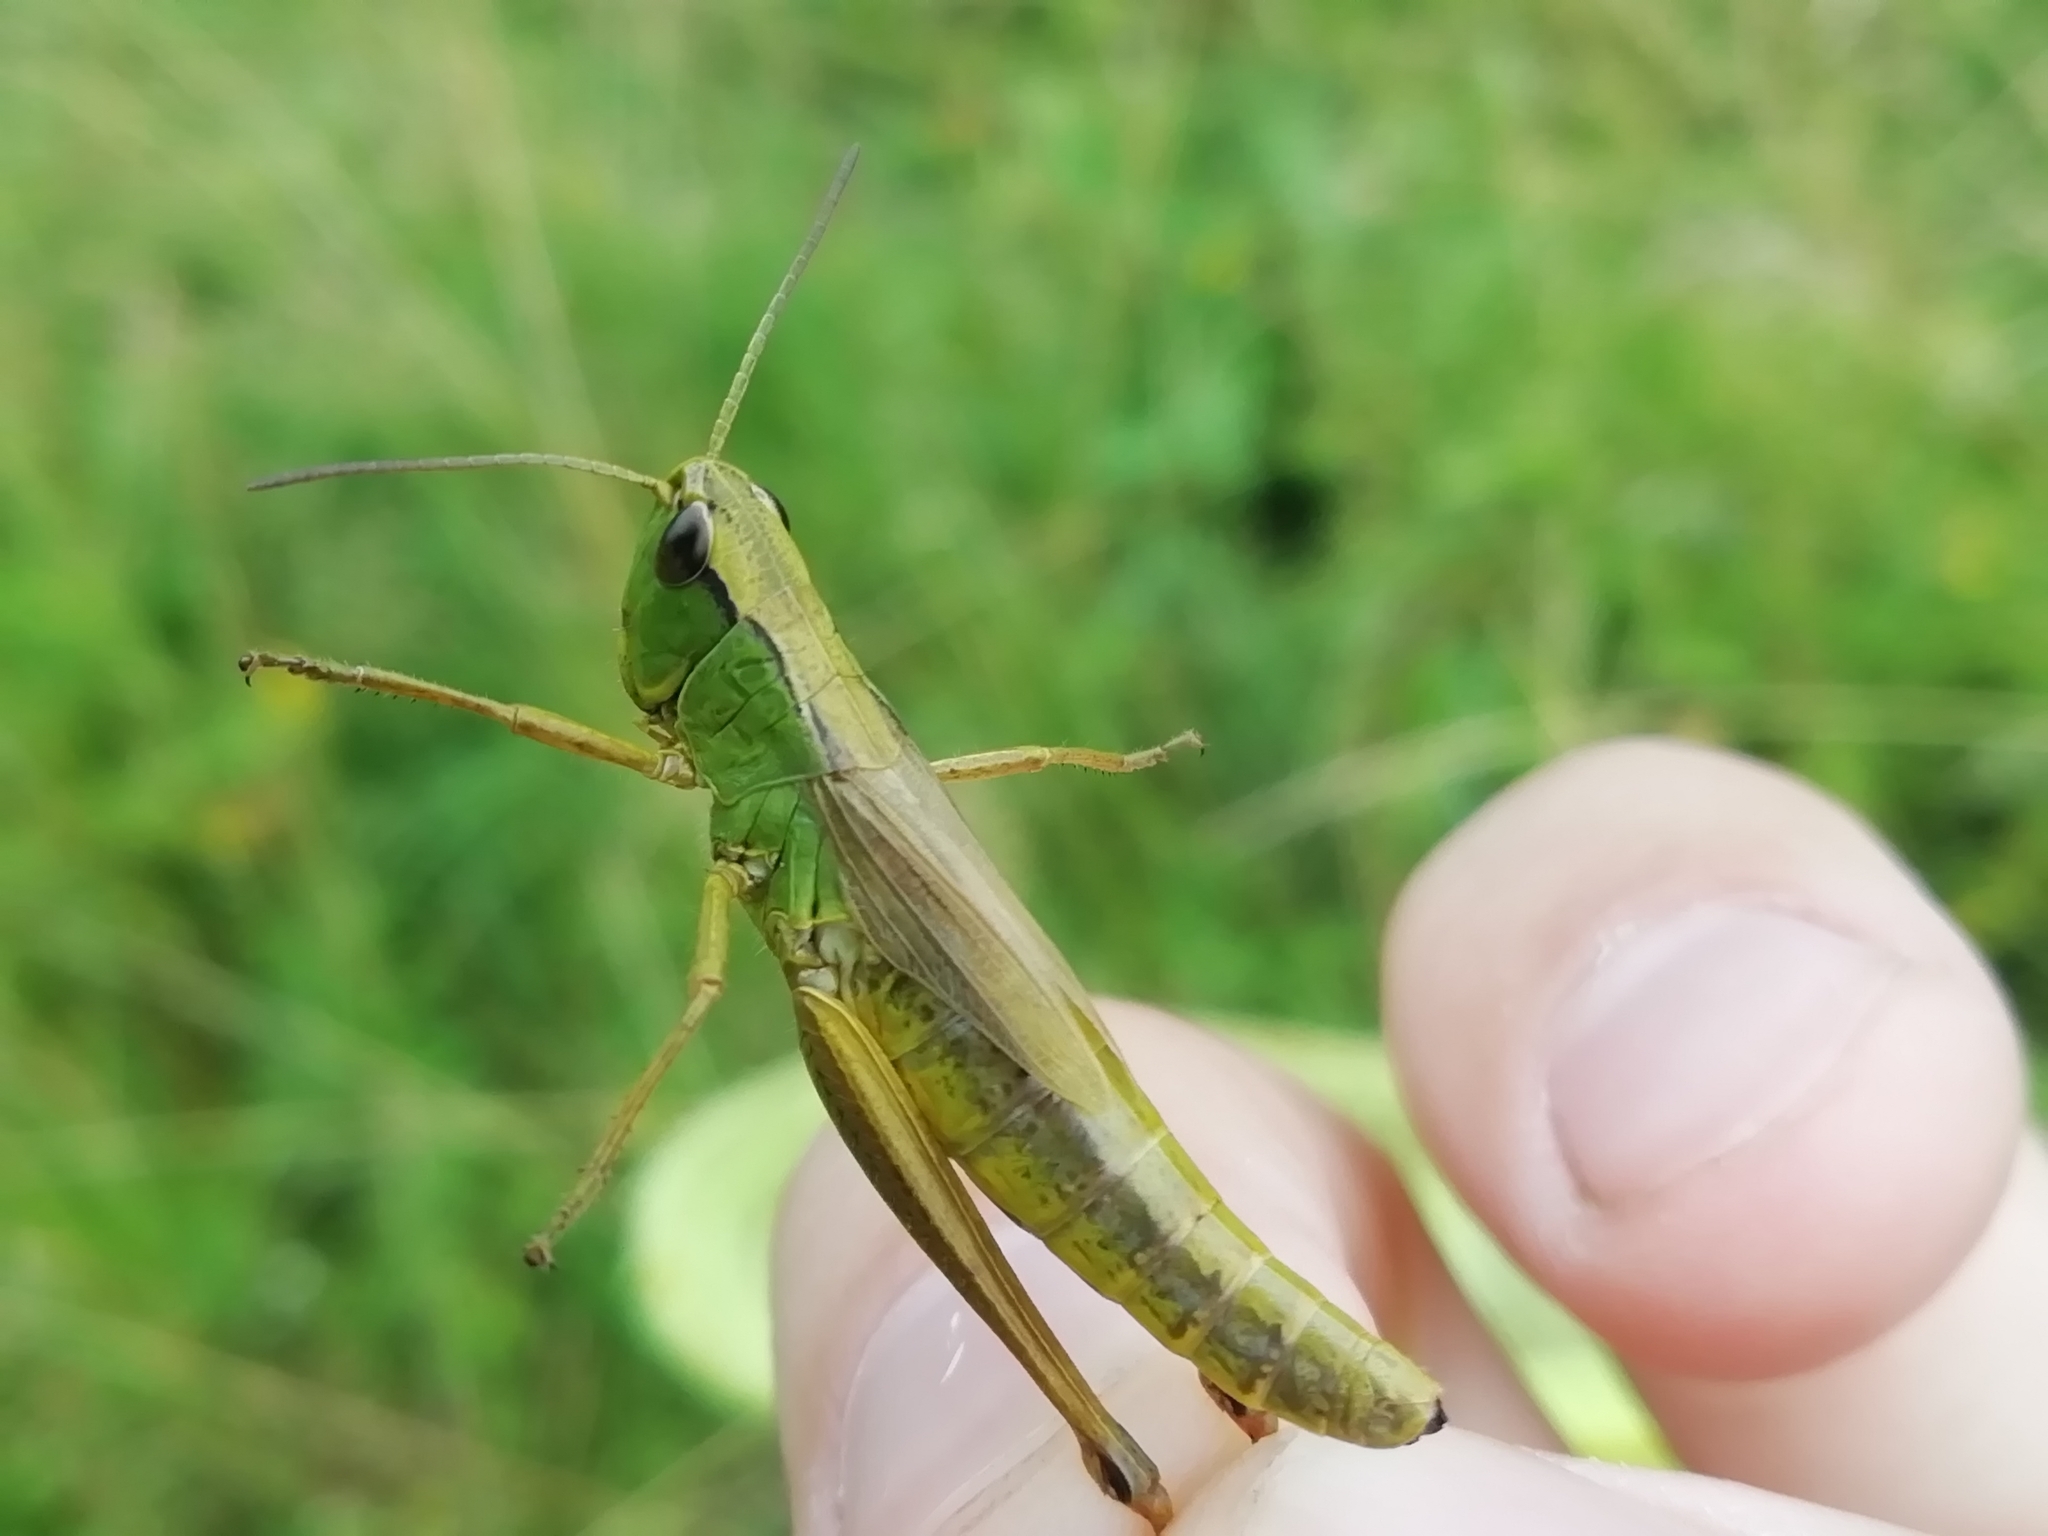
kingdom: Animalia
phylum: Arthropoda
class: Insecta
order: Orthoptera
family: Acrididae
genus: Pseudochorthippus
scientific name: Pseudochorthippus parallelus
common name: Meadow grasshopper
